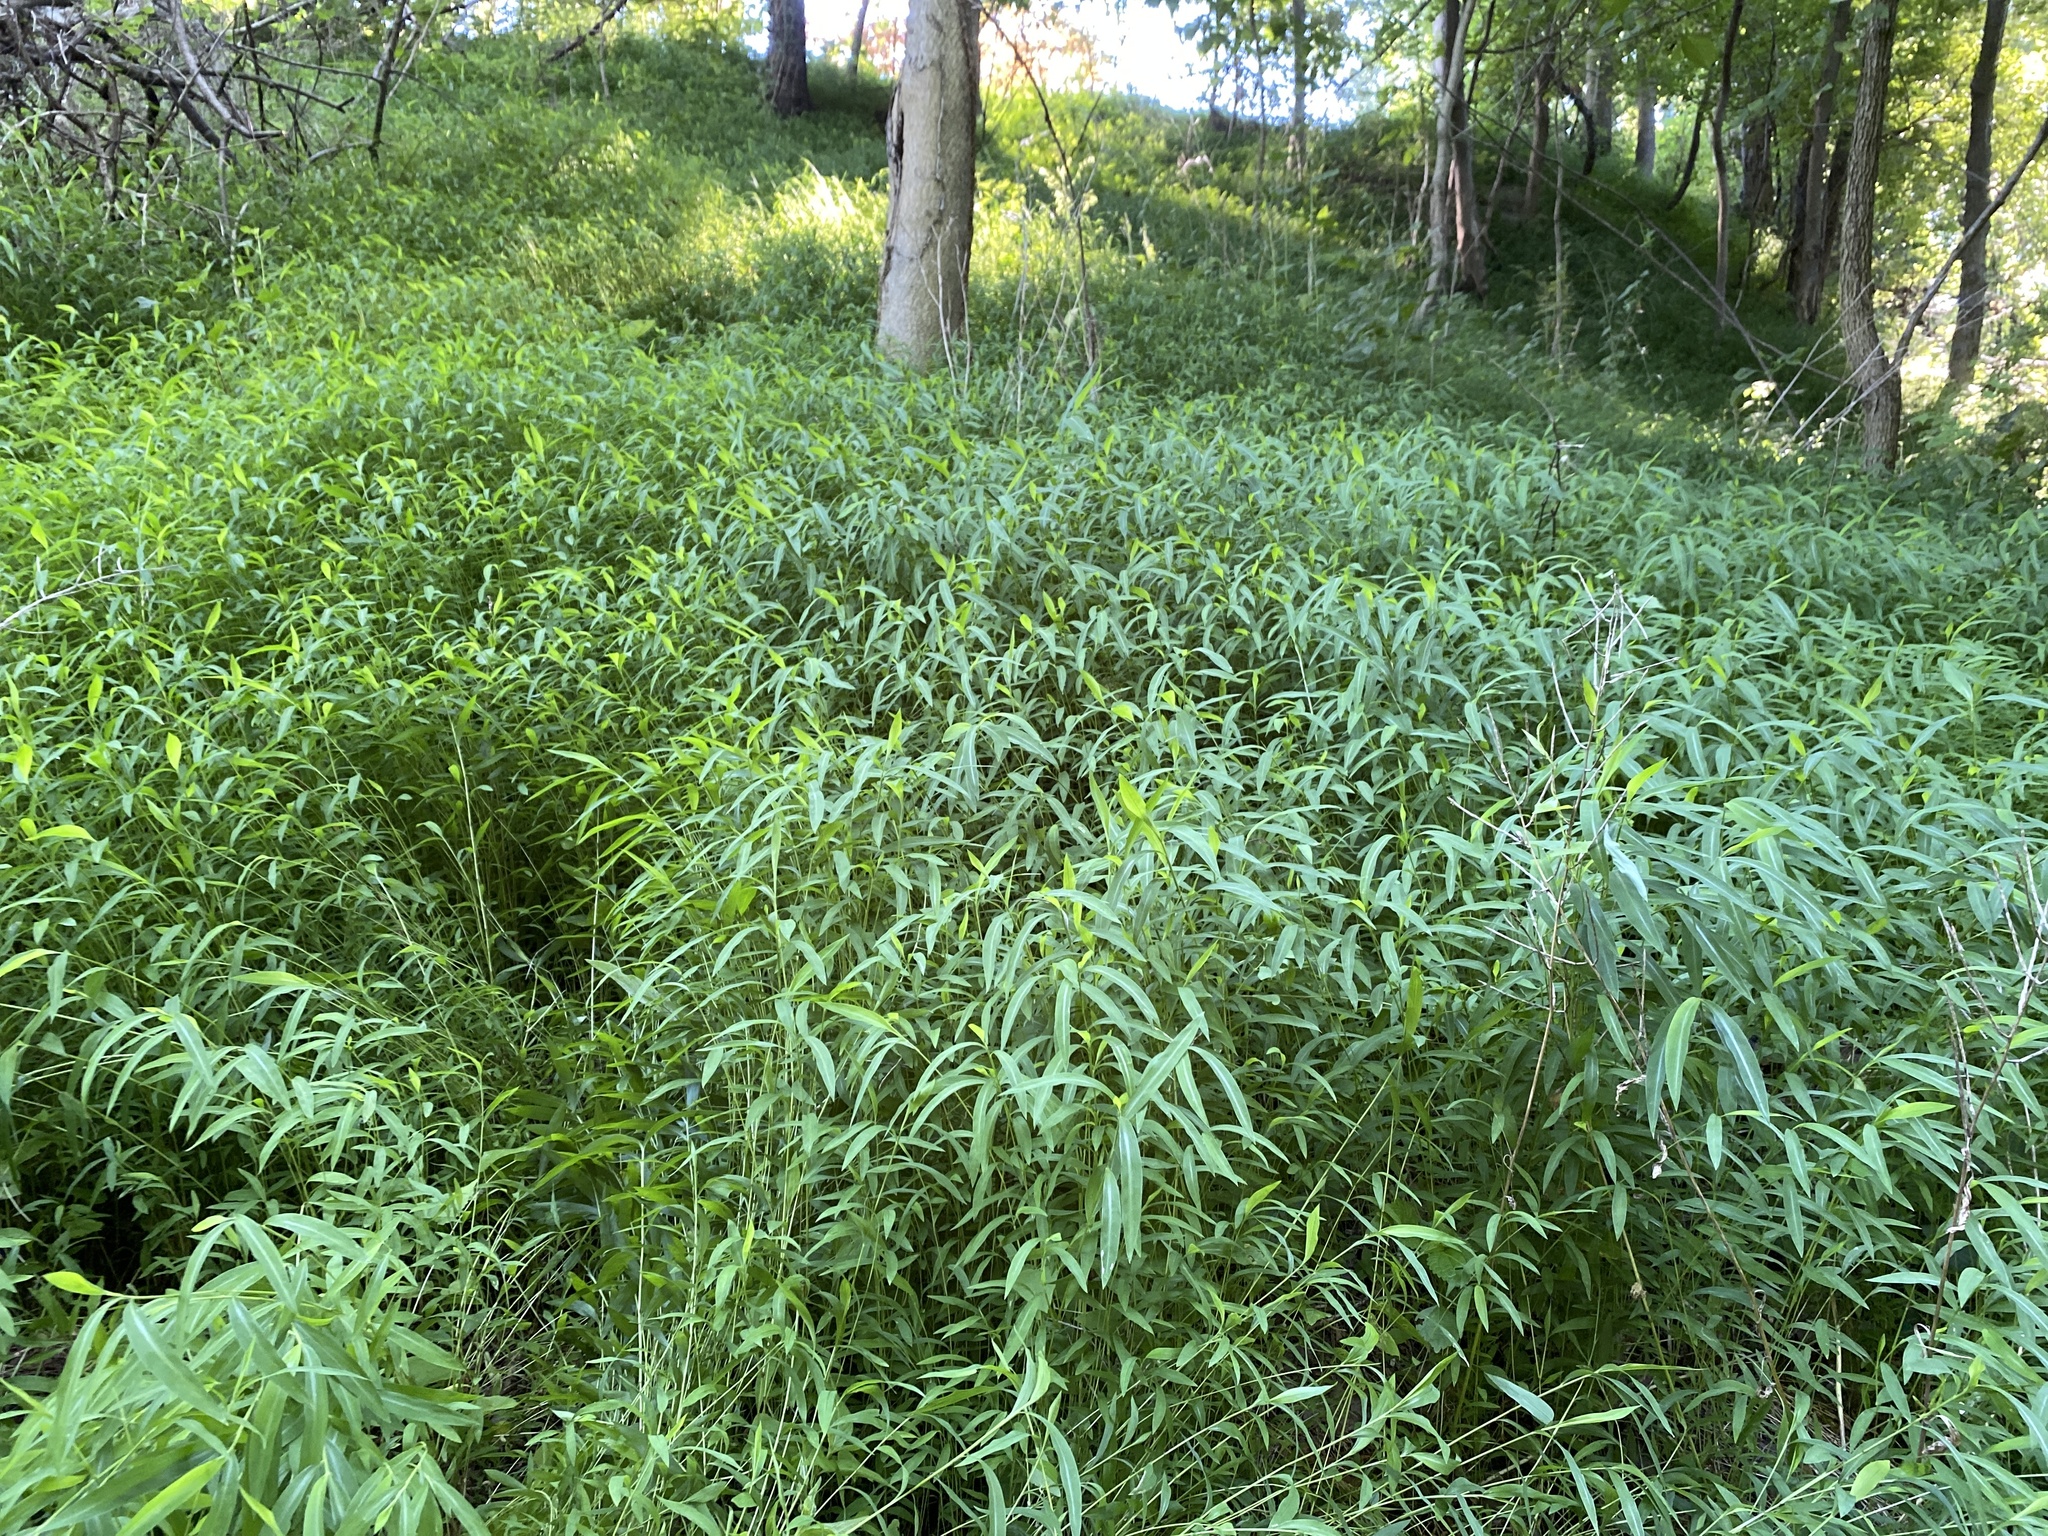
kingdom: Plantae
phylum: Tracheophyta
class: Liliopsida
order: Poales
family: Poaceae
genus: Microstegium
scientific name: Microstegium vimineum
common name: Japanese stiltgrass
